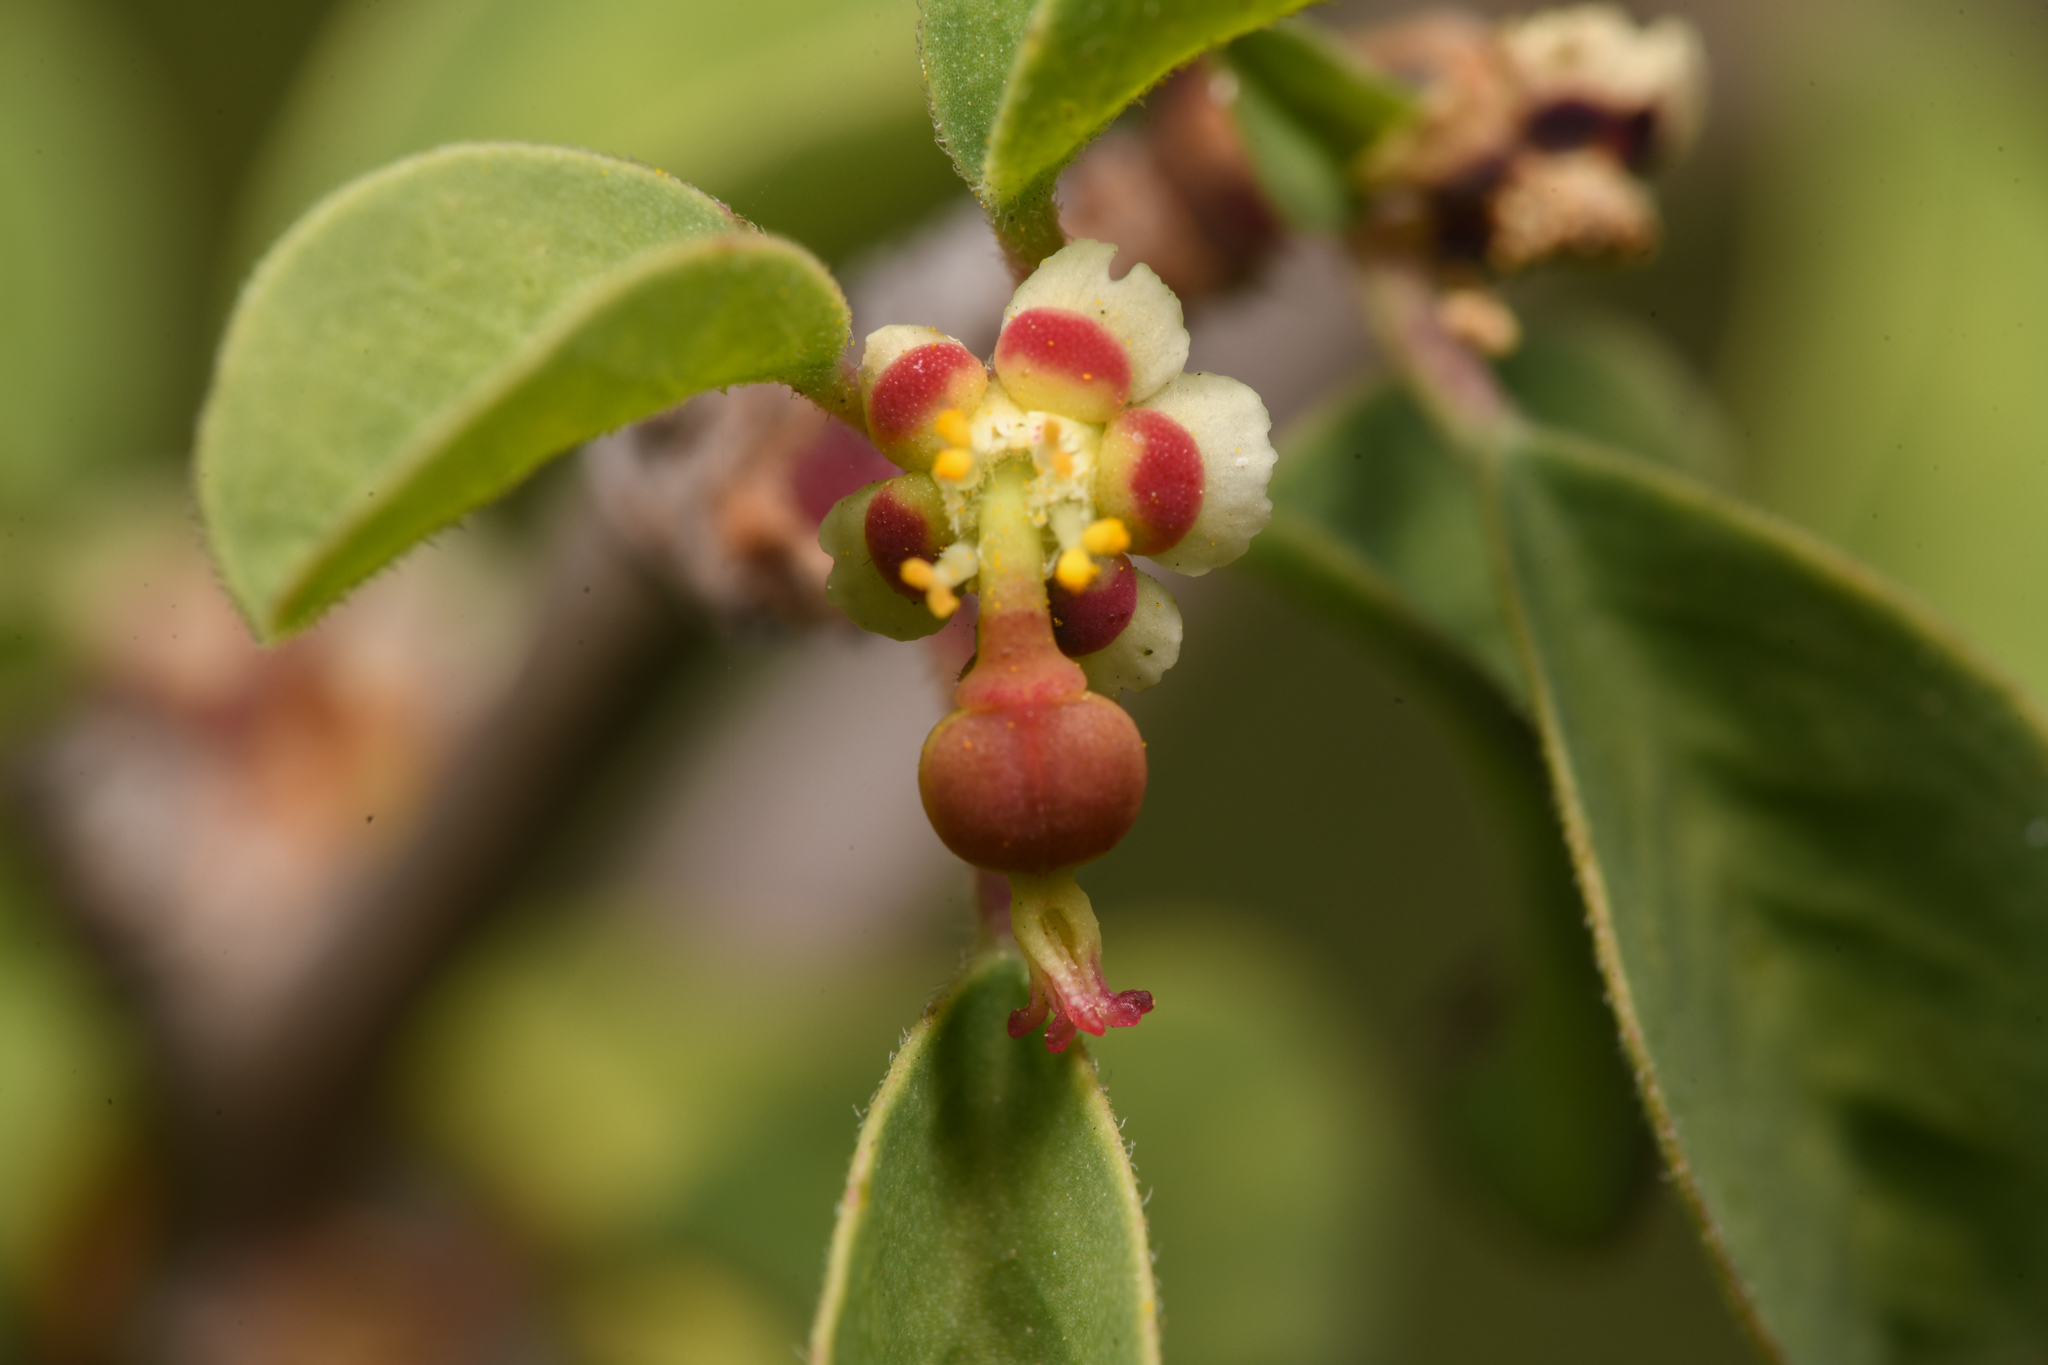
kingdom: Plantae
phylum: Tracheophyta
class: Magnoliopsida
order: Malpighiales
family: Euphorbiaceae
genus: Euphorbia
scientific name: Euphorbia misera
